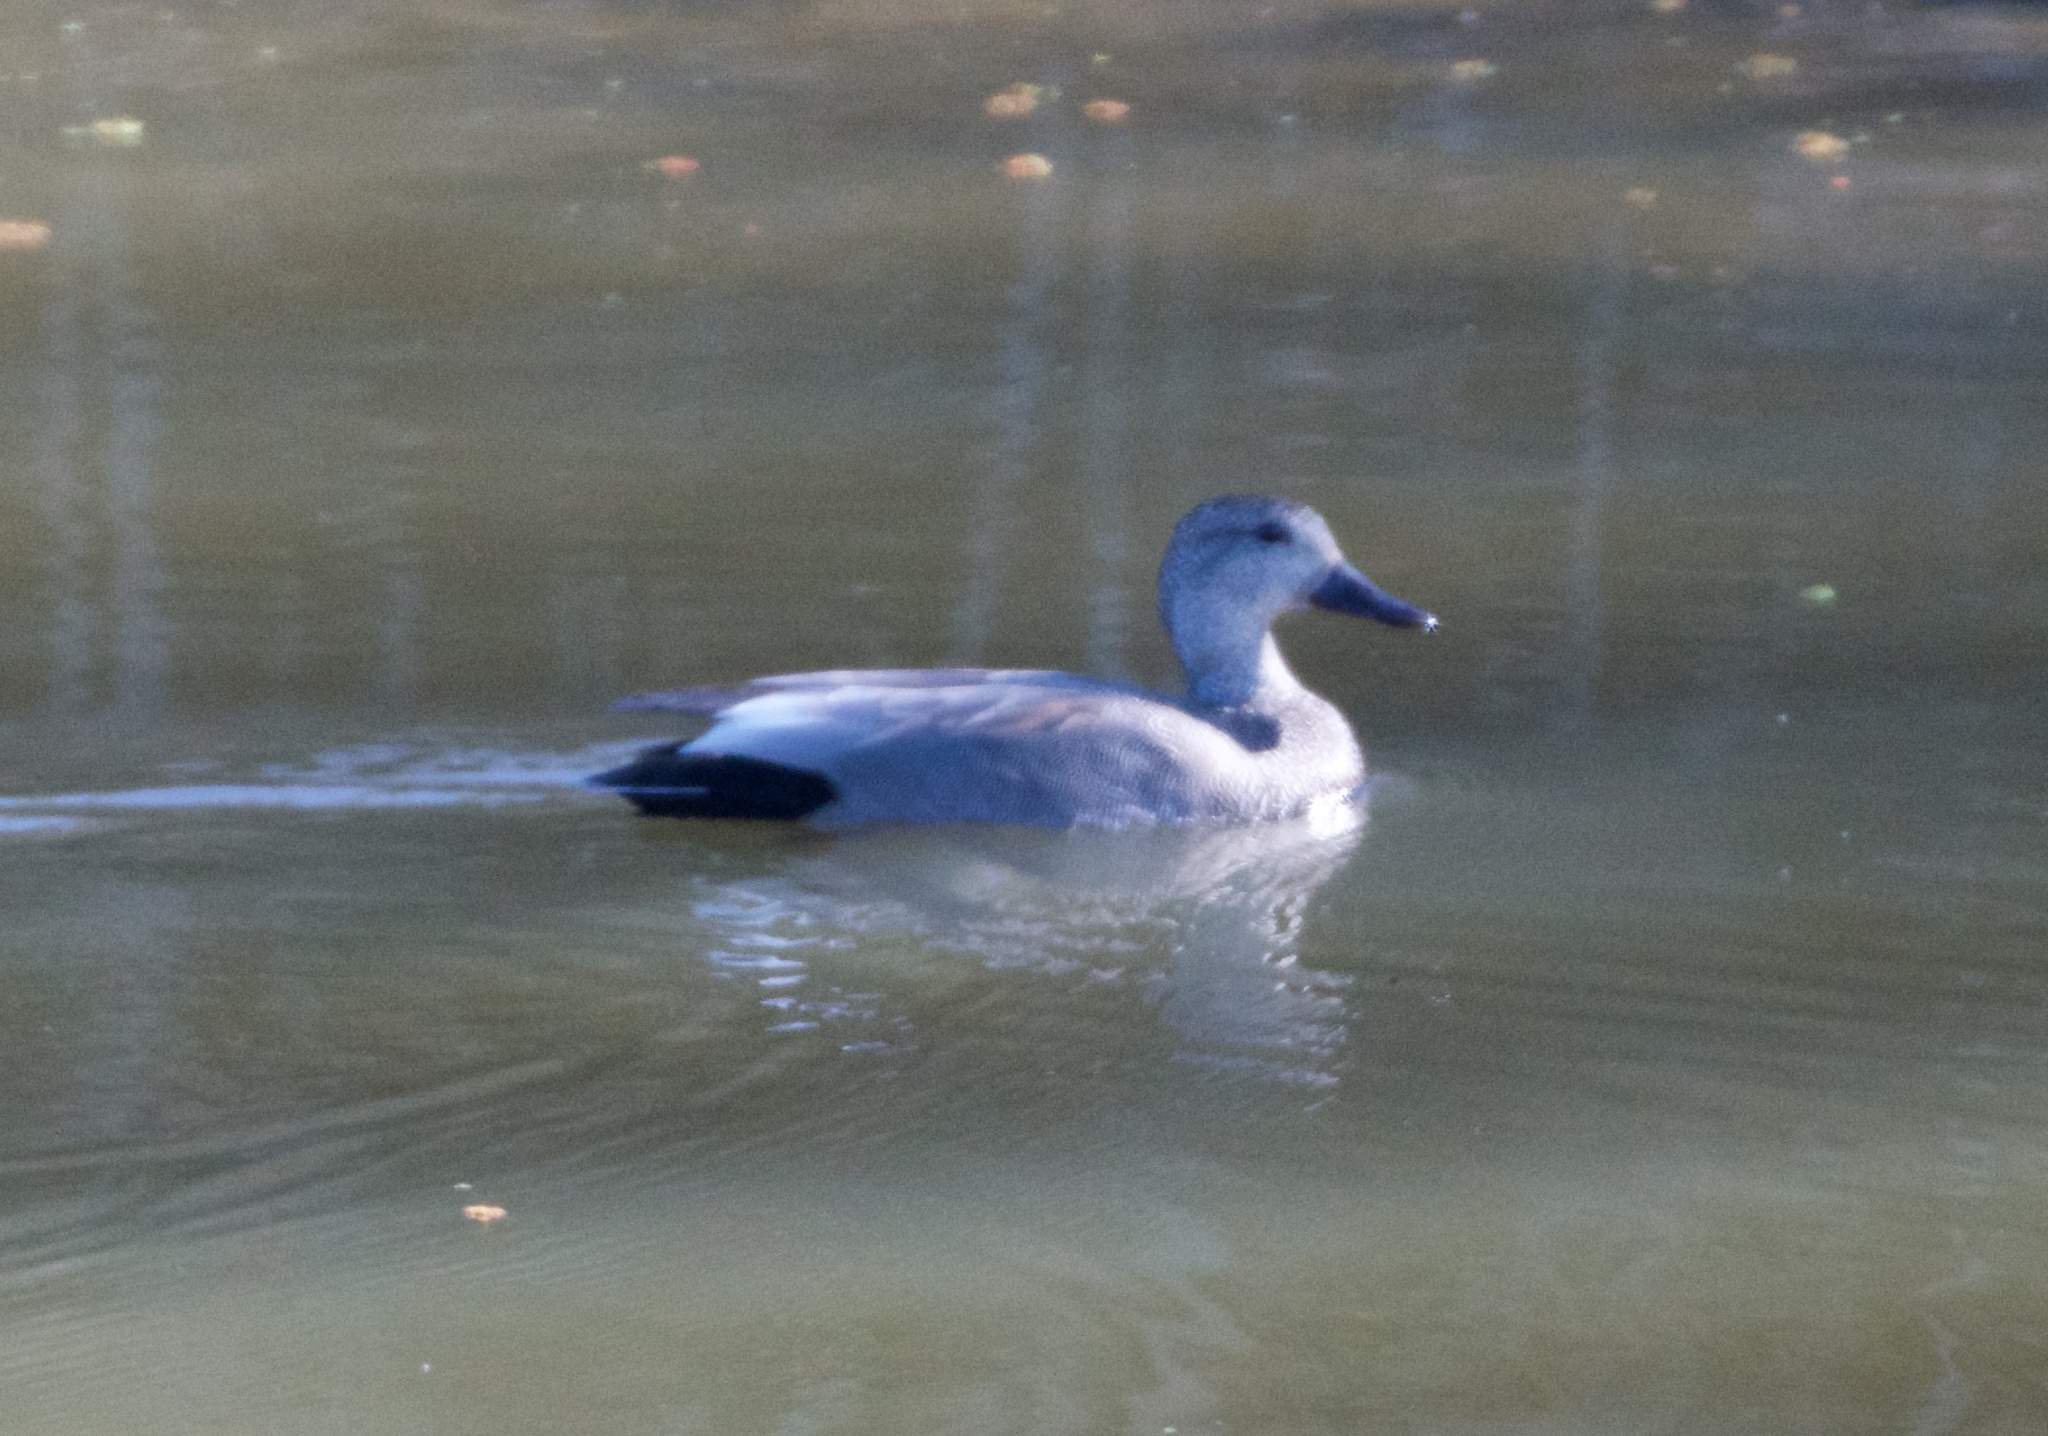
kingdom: Animalia
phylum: Chordata
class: Aves
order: Anseriformes
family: Anatidae
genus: Mareca
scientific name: Mareca strepera
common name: Gadwall
